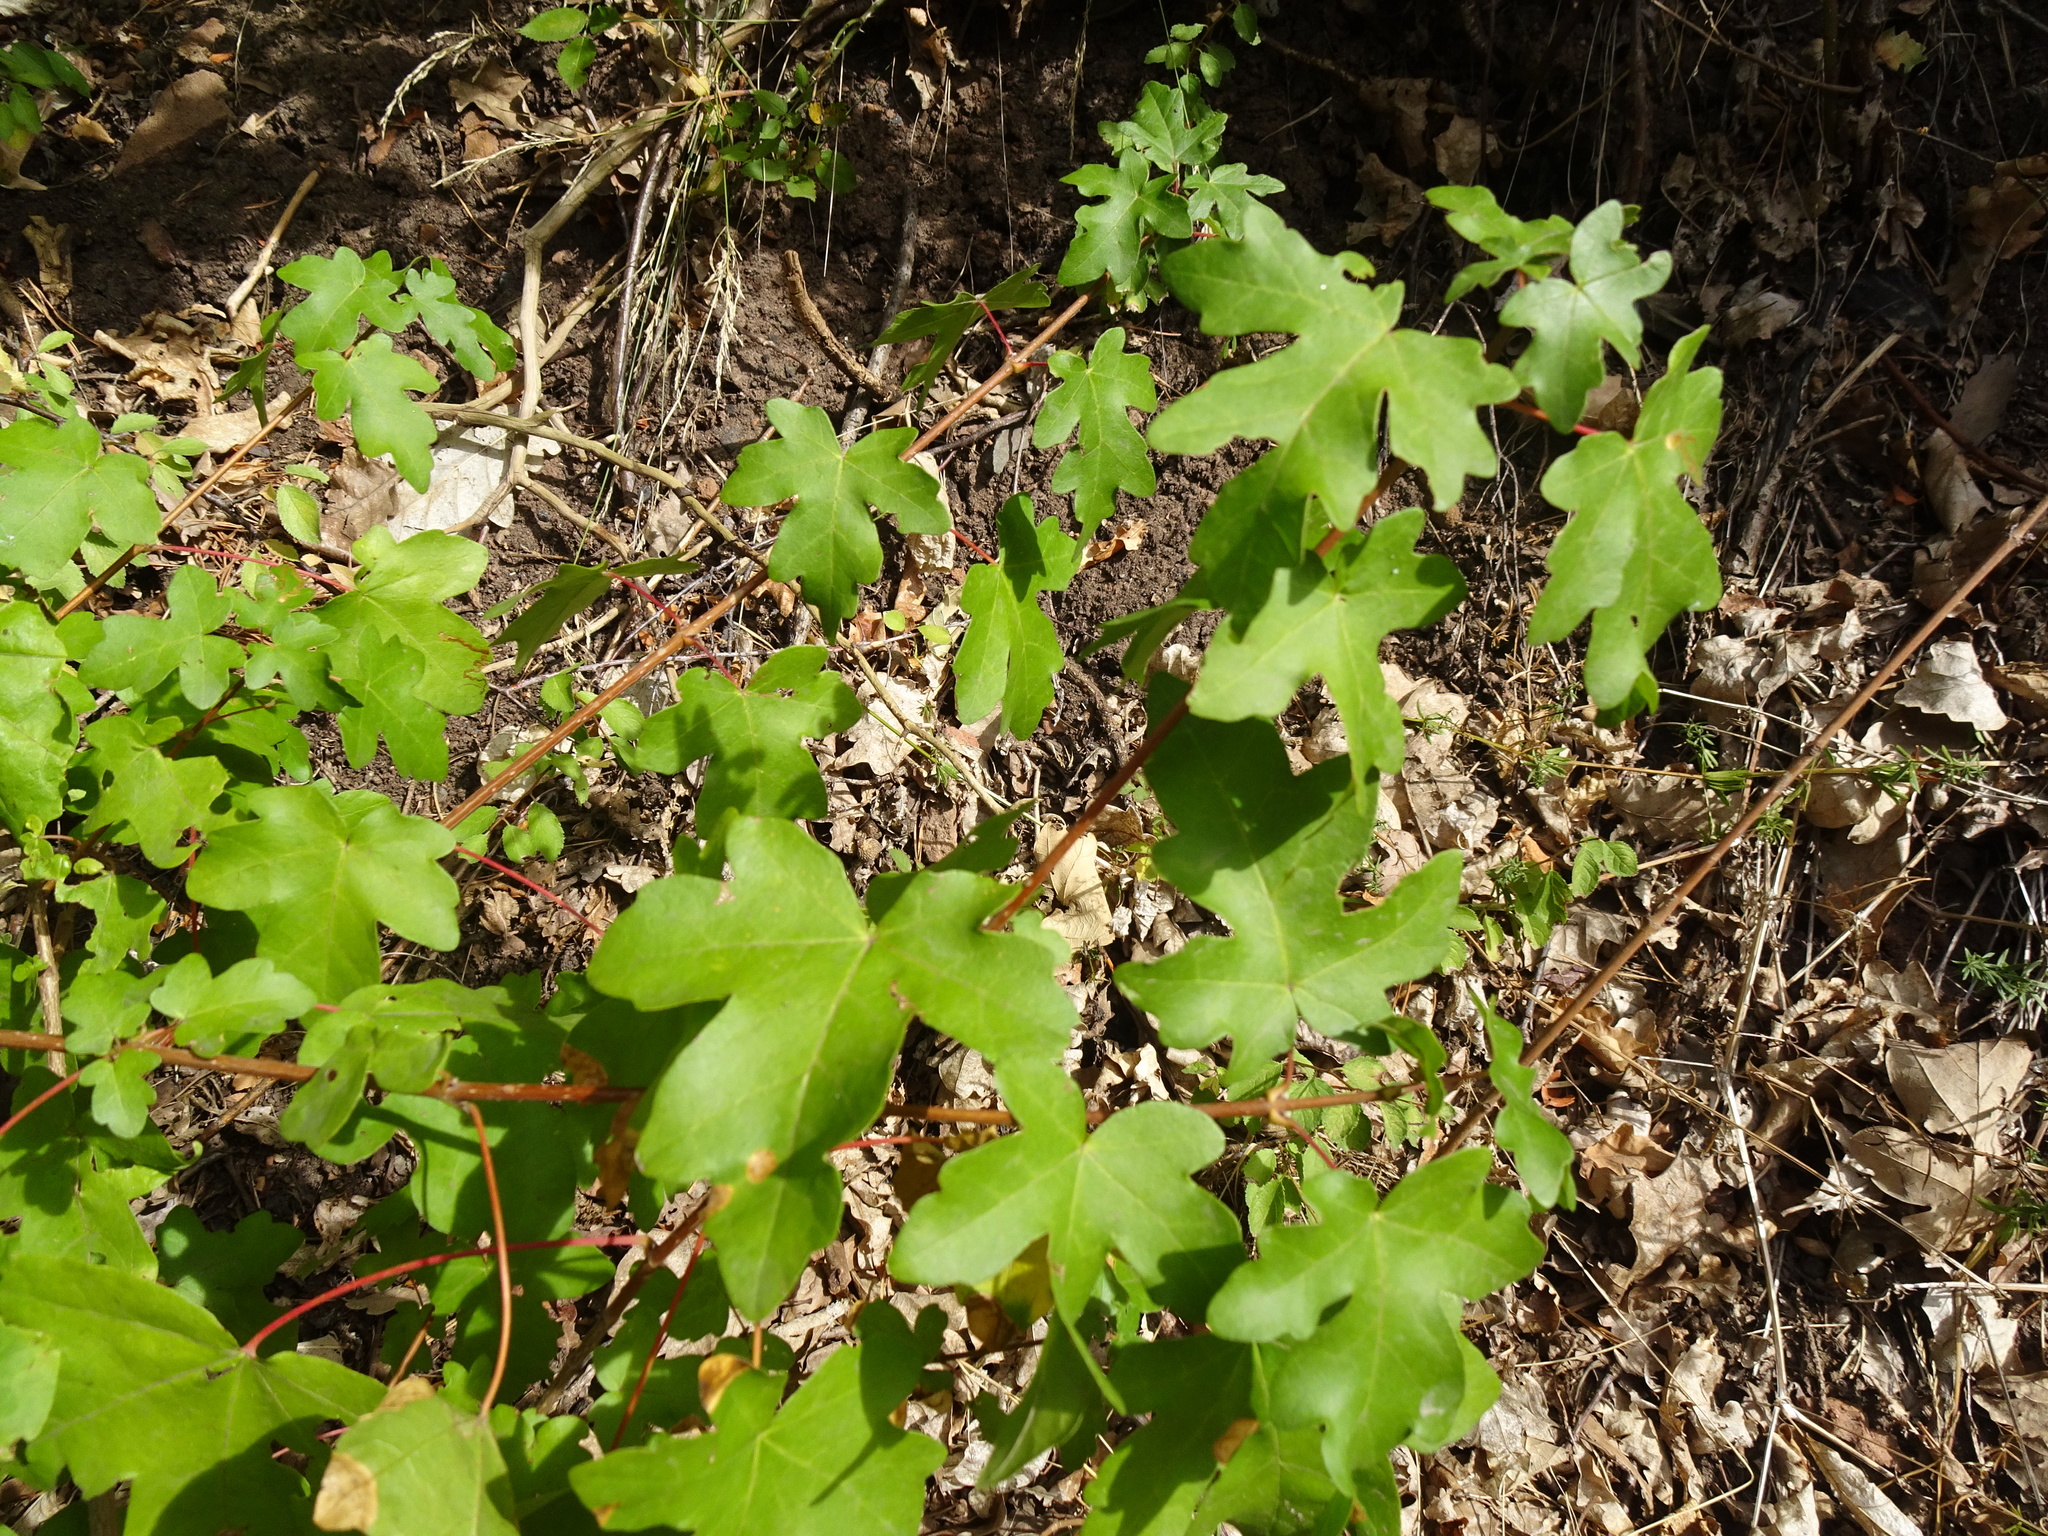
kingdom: Plantae
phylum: Tracheophyta
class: Magnoliopsida
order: Sapindales
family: Sapindaceae
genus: Acer
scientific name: Acer campestre
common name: Field maple
